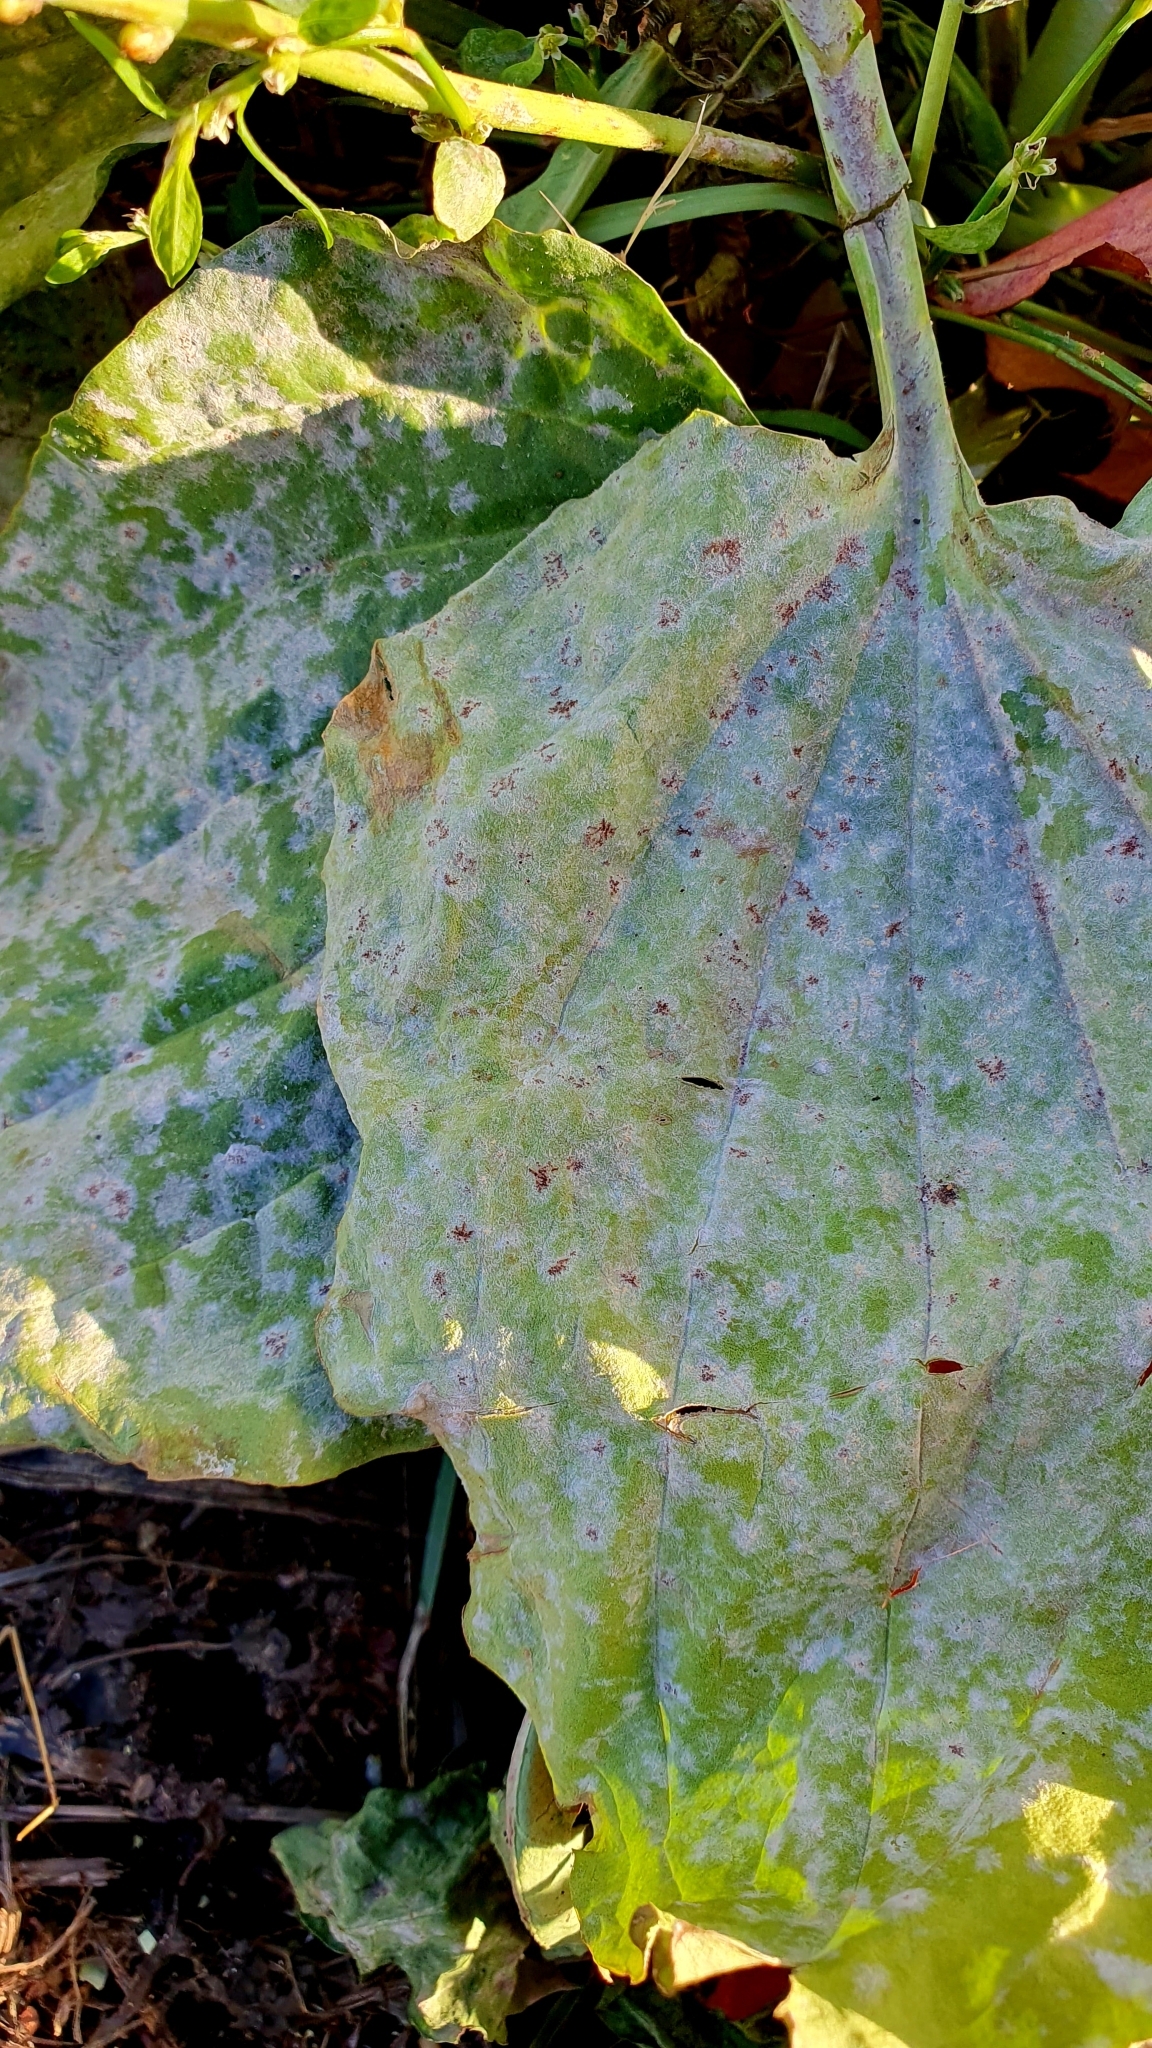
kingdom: Fungi
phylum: Ascomycota
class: Leotiomycetes
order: Helotiales
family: Erysiphaceae
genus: Golovinomyces
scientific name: Golovinomyces sordidus
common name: Plantain mildew
